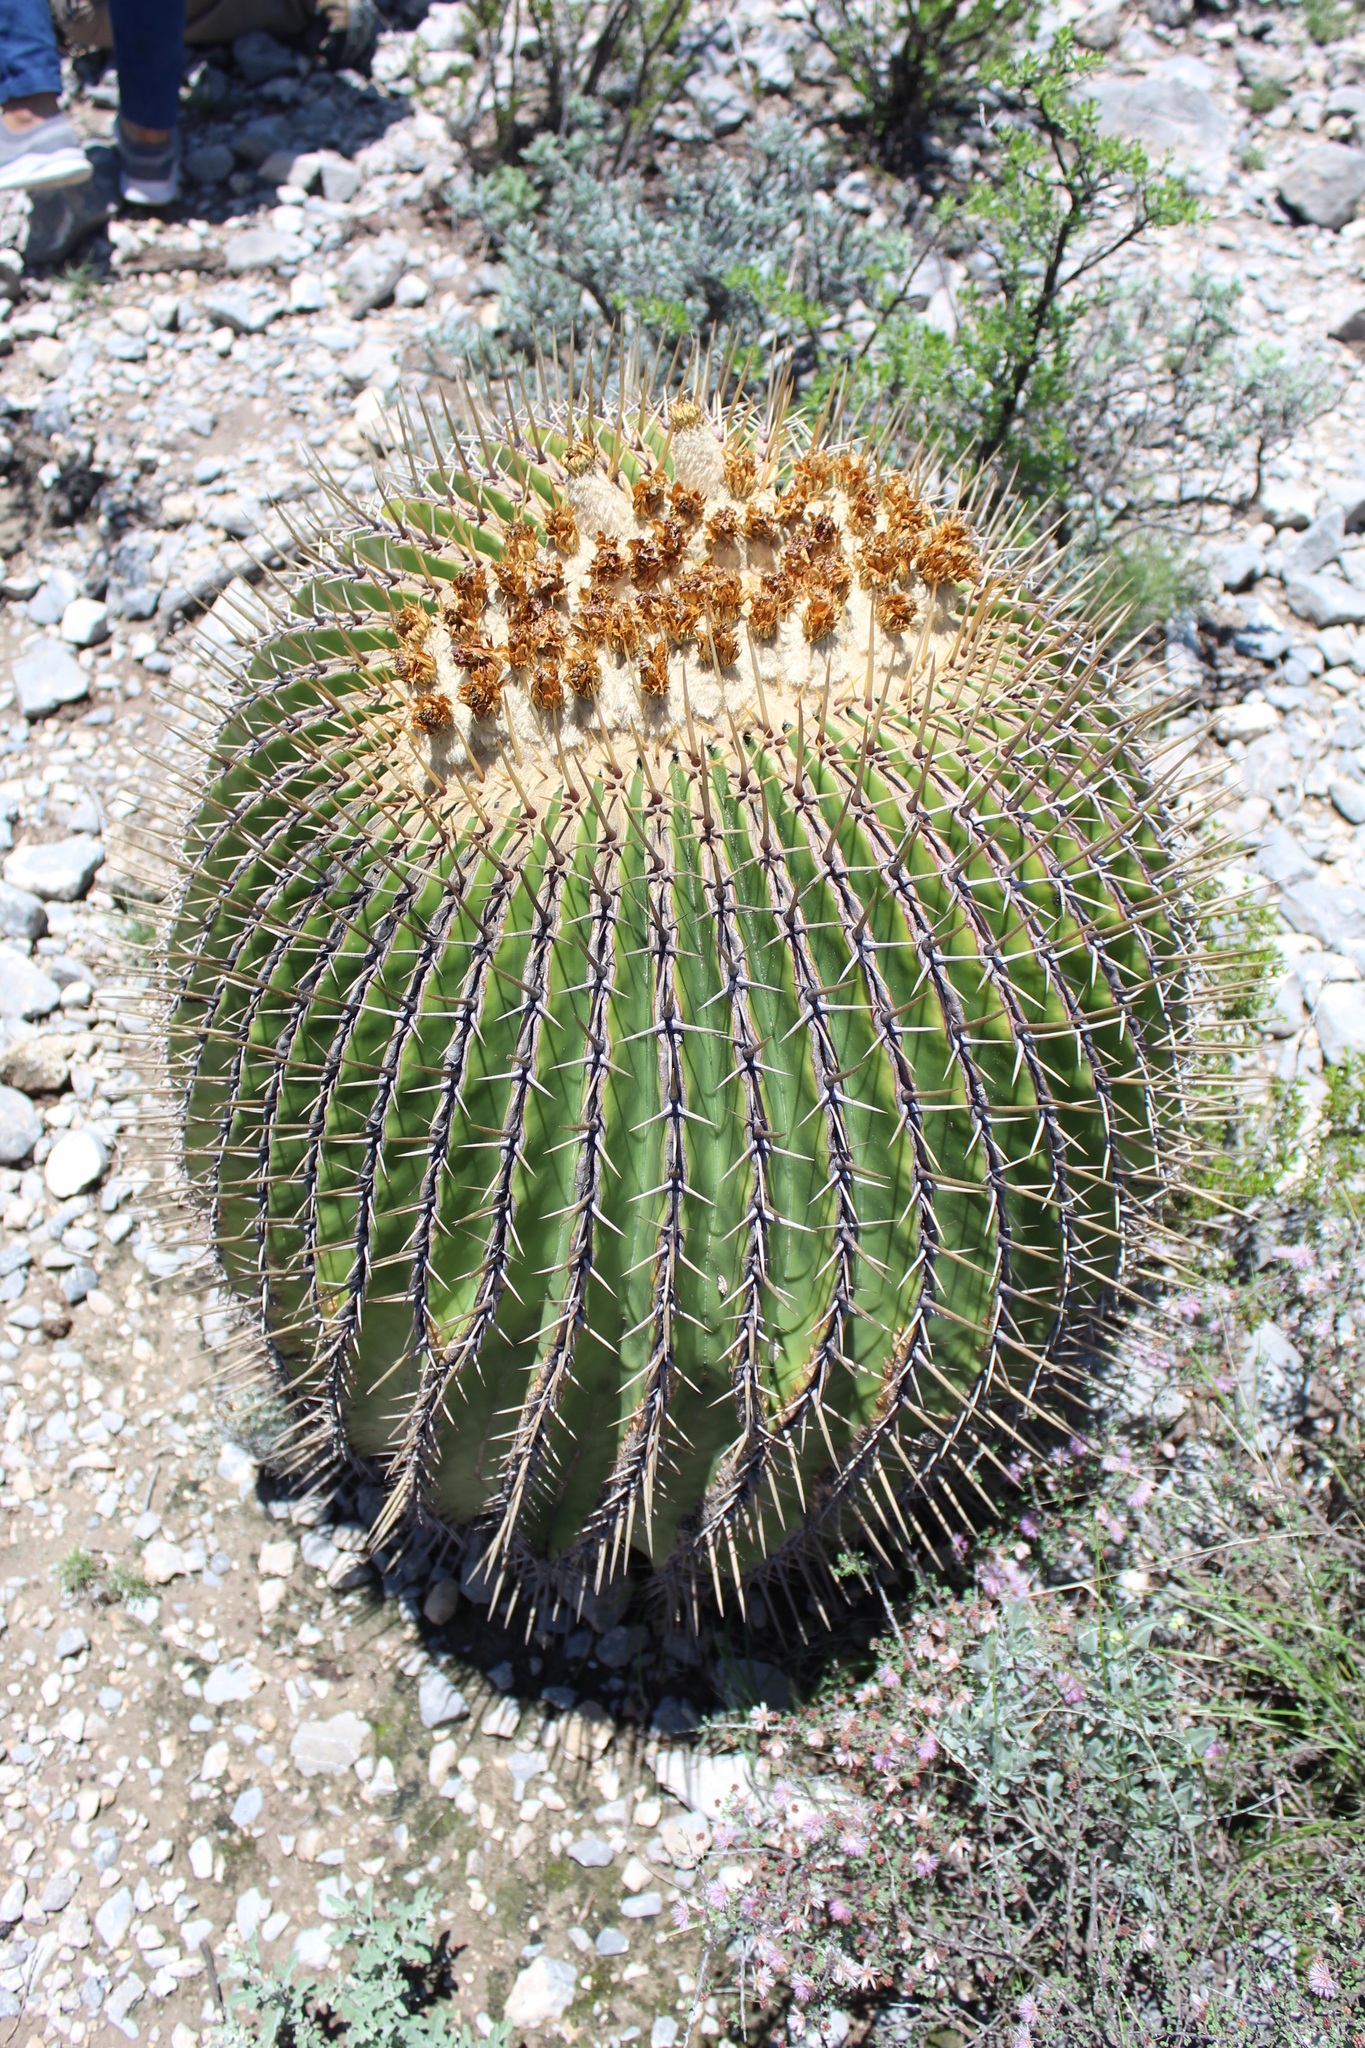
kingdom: Plantae
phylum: Tracheophyta
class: Magnoliopsida
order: Caryophyllales
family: Cactaceae
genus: Echinocactus
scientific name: Echinocactus platyacanthus
